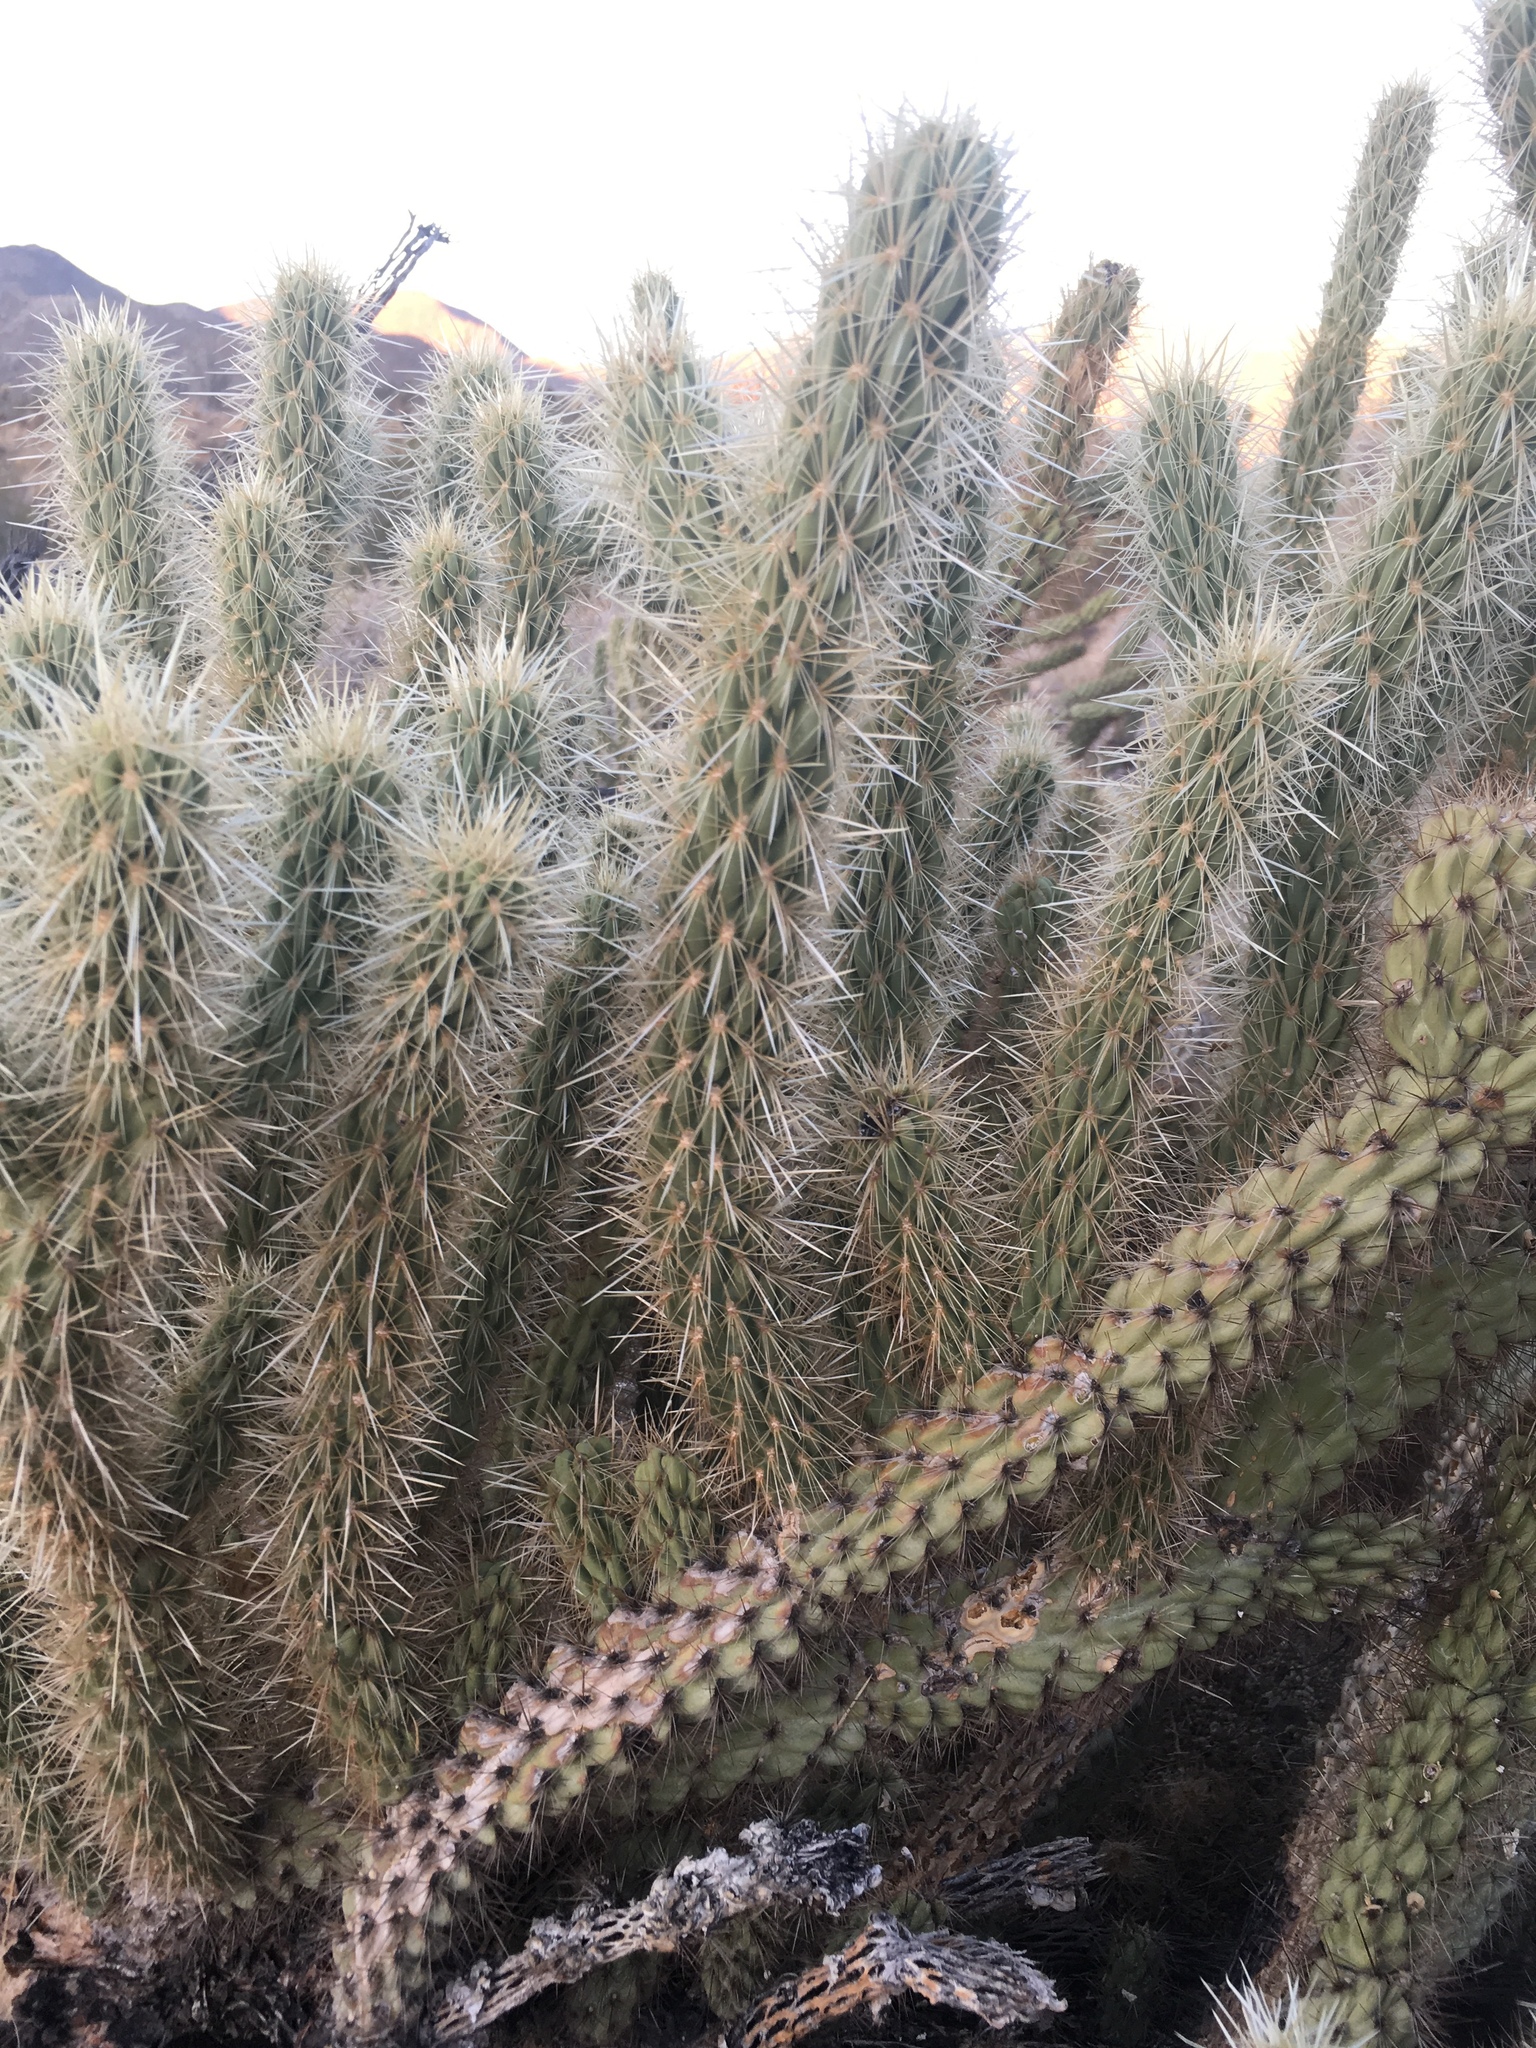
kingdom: Plantae
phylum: Tracheophyta
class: Magnoliopsida
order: Caryophyllales
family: Cactaceae
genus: Cylindropuntia
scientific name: Cylindropuntia ganderi
